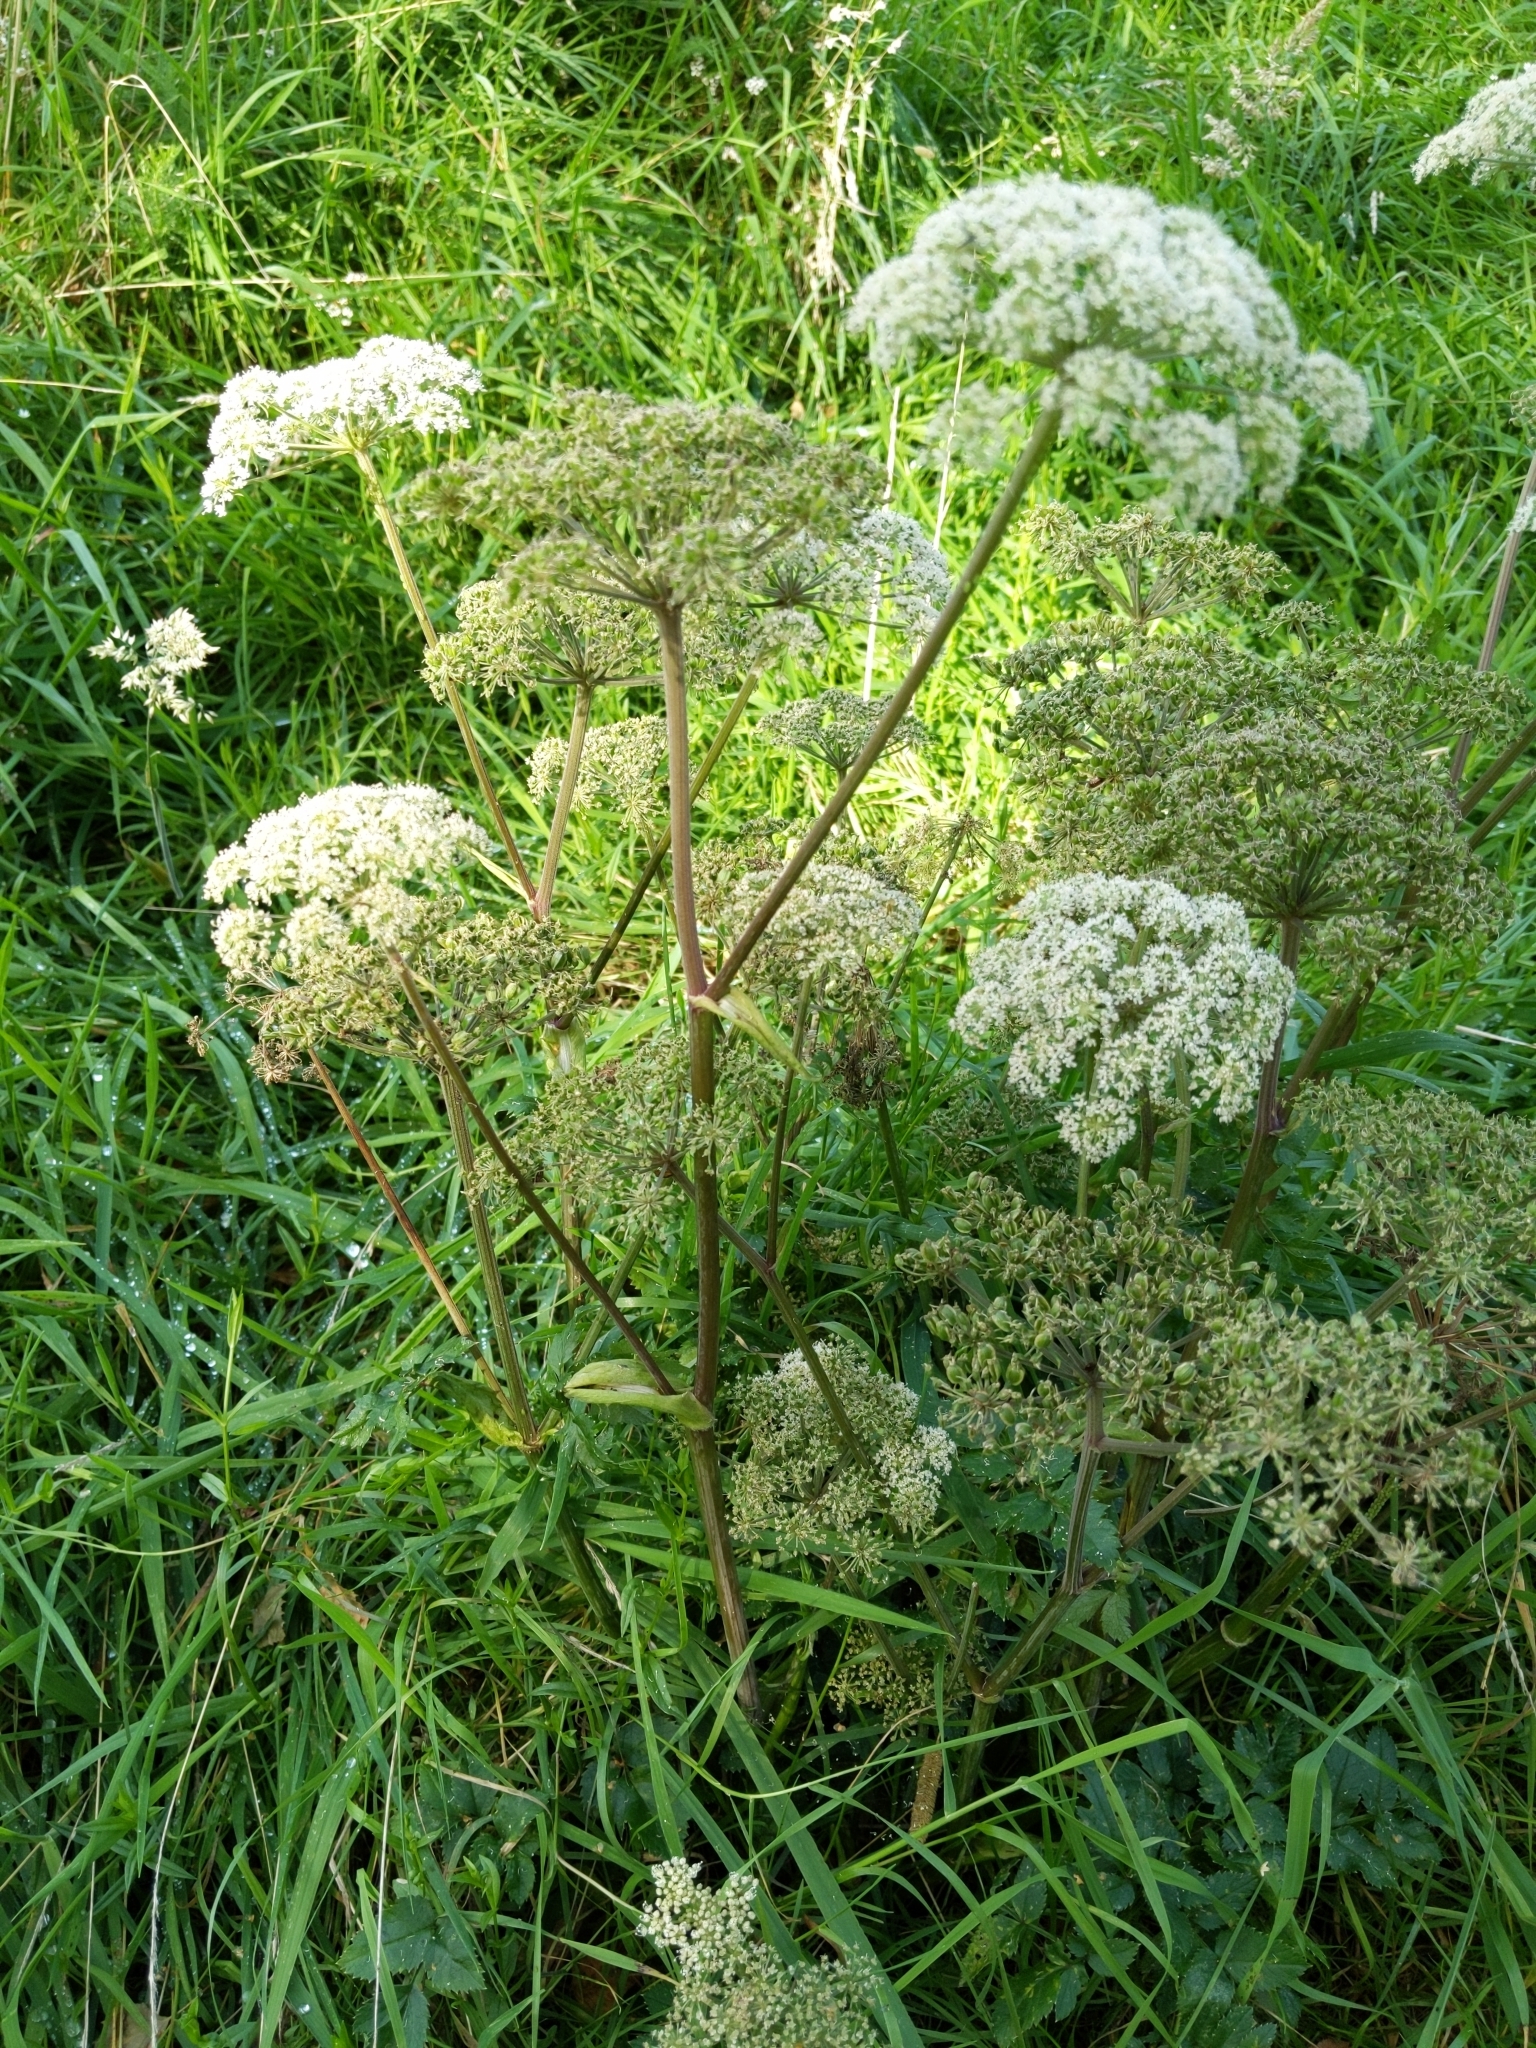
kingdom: Plantae
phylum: Tracheophyta
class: Magnoliopsida
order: Apiales
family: Apiaceae
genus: Angelica
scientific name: Angelica sylvestris
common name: Wild angelica
